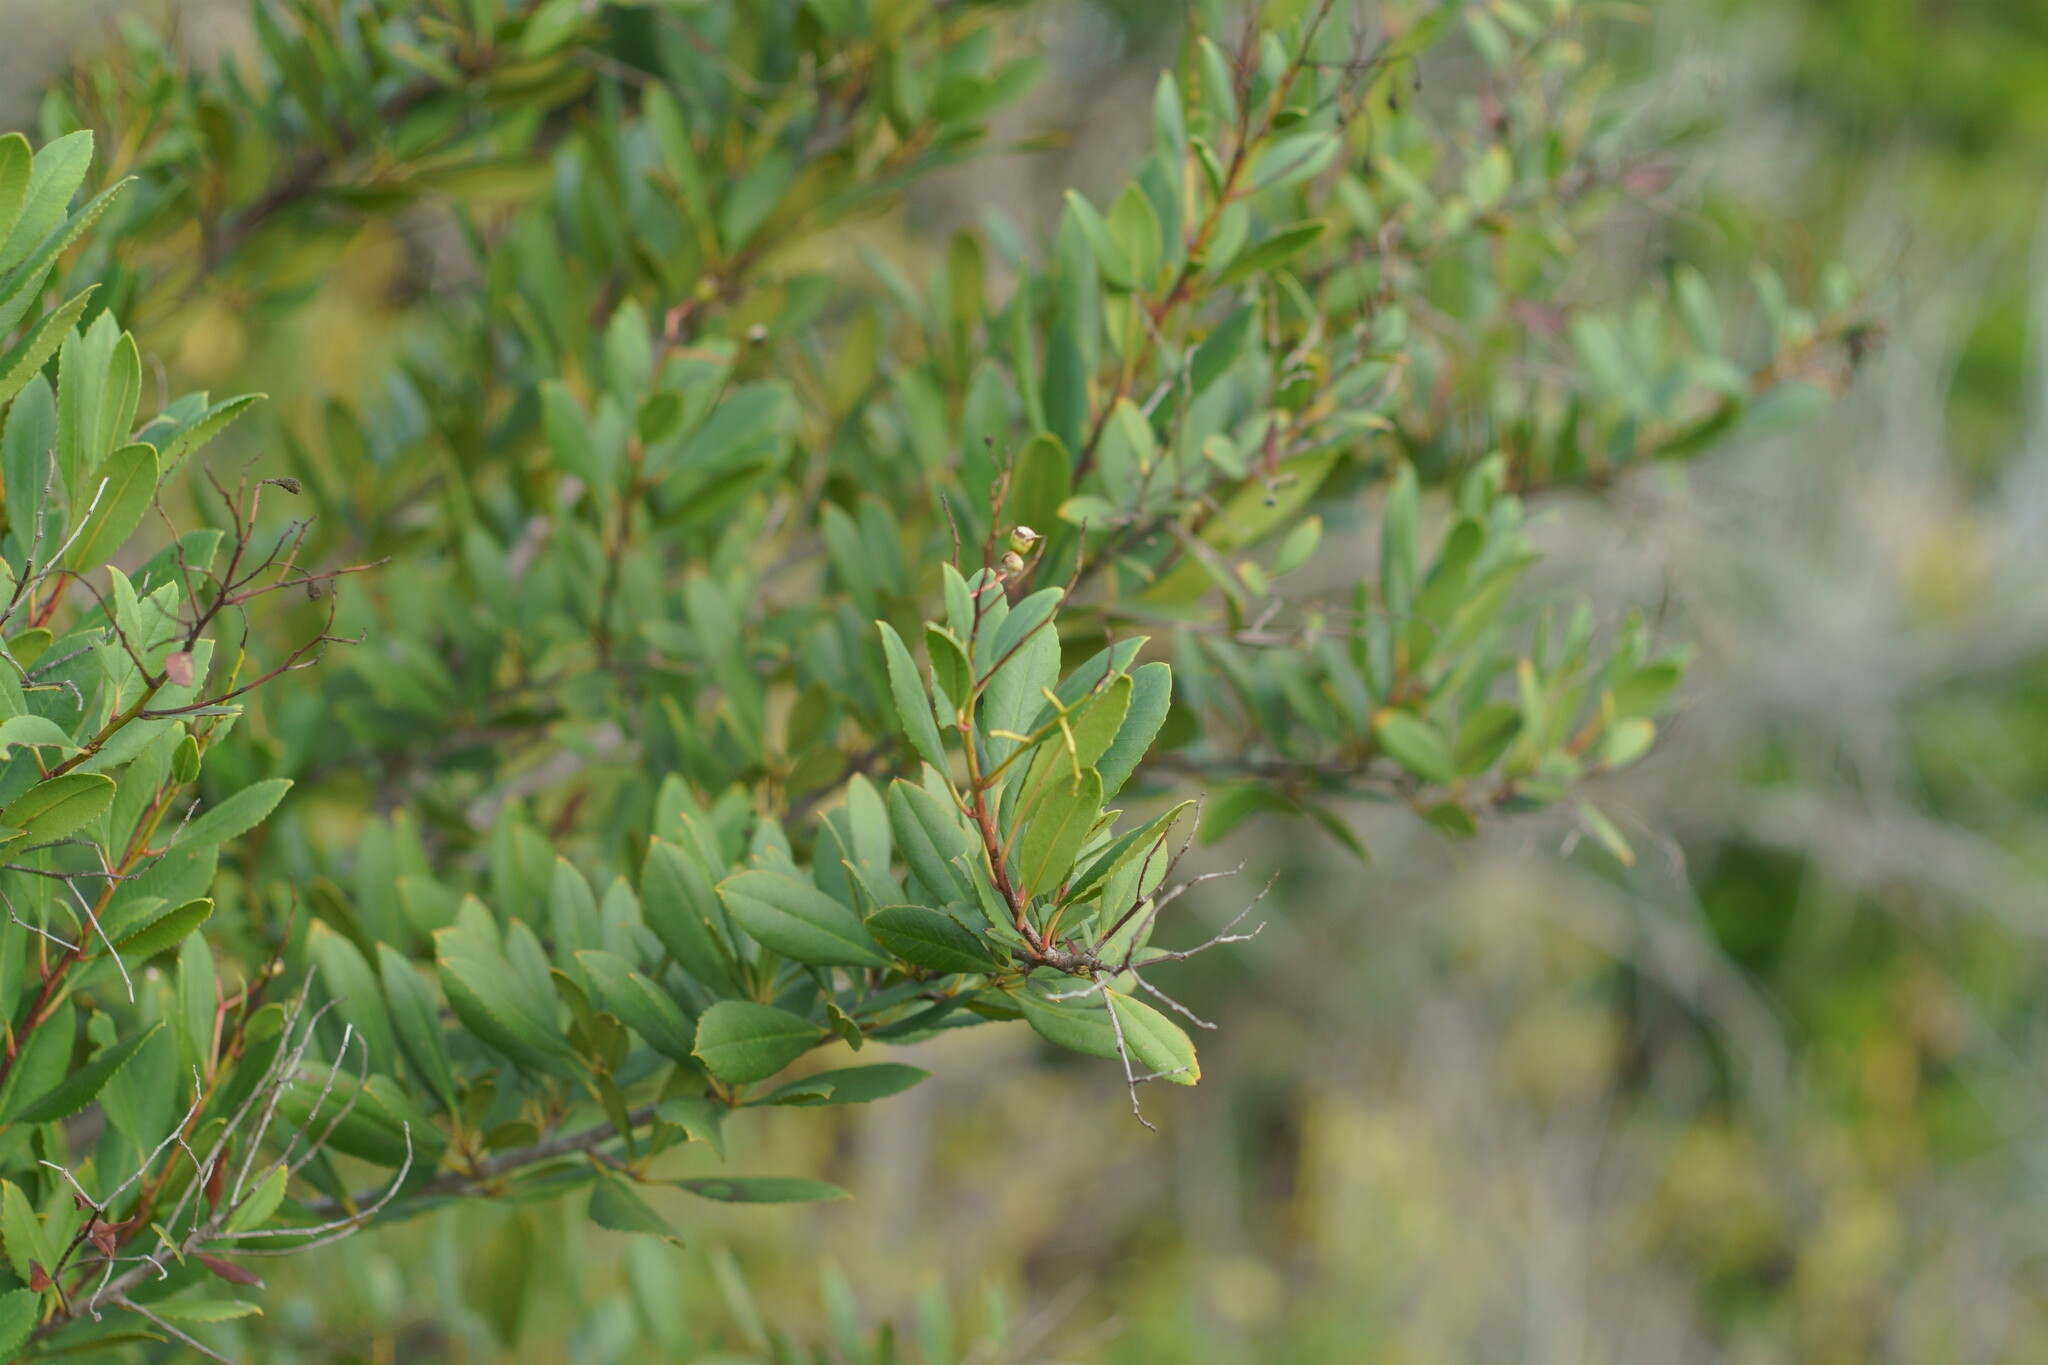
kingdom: Plantae
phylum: Tracheophyta
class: Magnoliopsida
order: Rosales
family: Rosaceae
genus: Heteromeles
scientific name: Heteromeles arbutifolia
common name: California-holly
